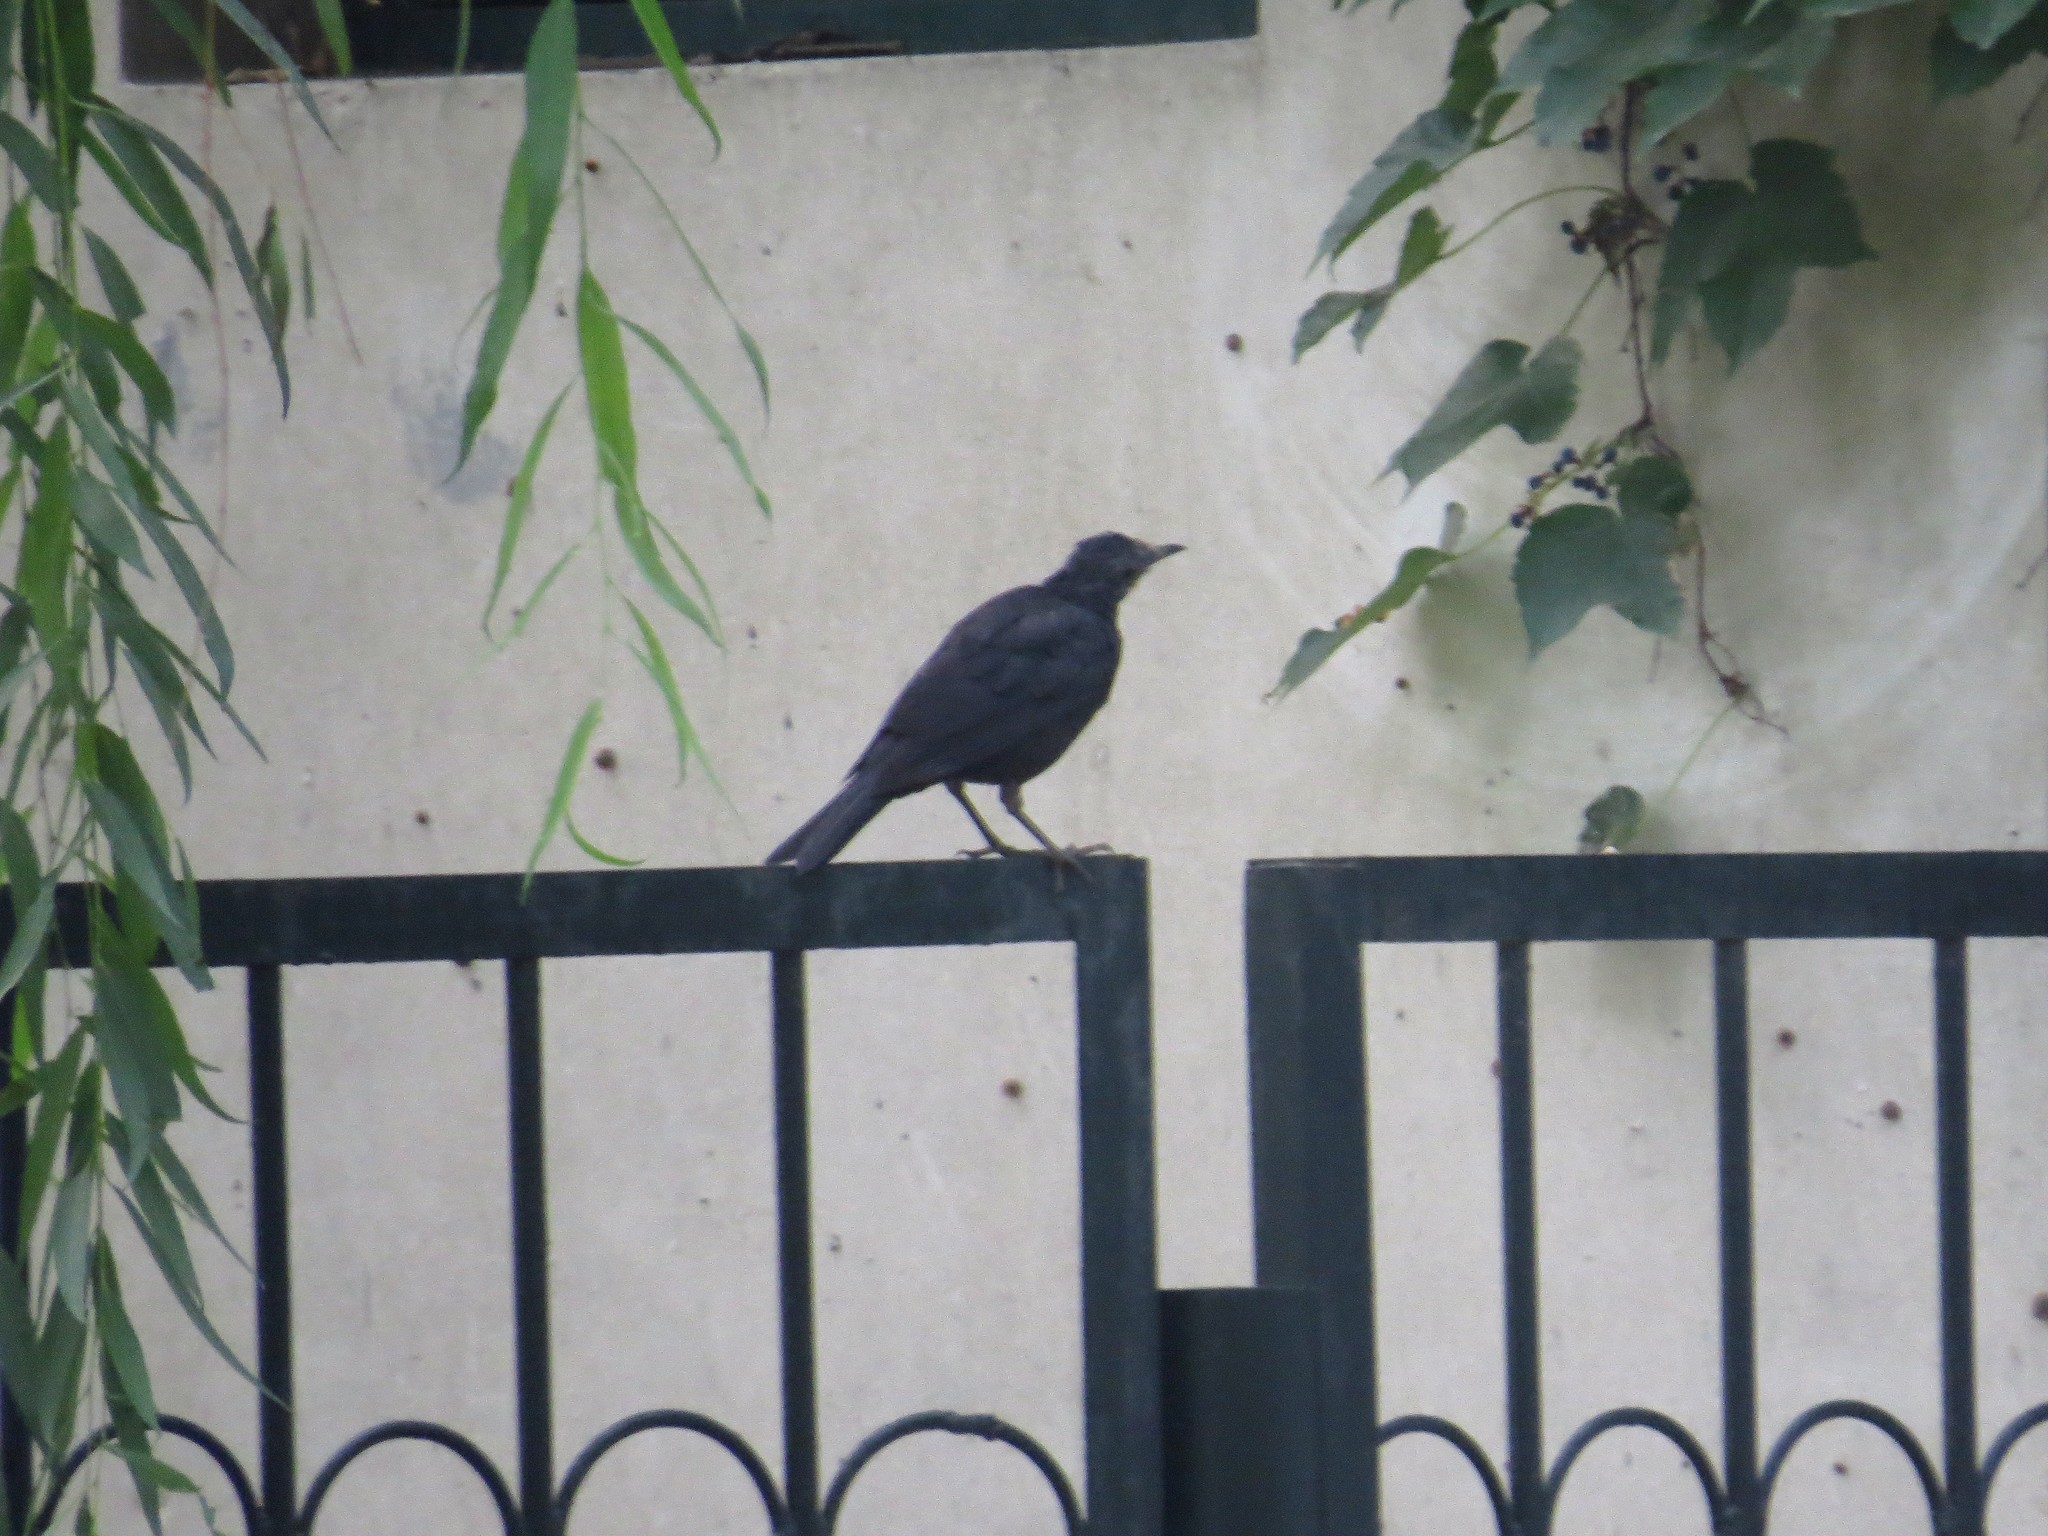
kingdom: Animalia
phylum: Chordata
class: Aves
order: Passeriformes
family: Turdidae
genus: Turdus
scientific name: Turdus mandarinus
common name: Chinese blackbird
